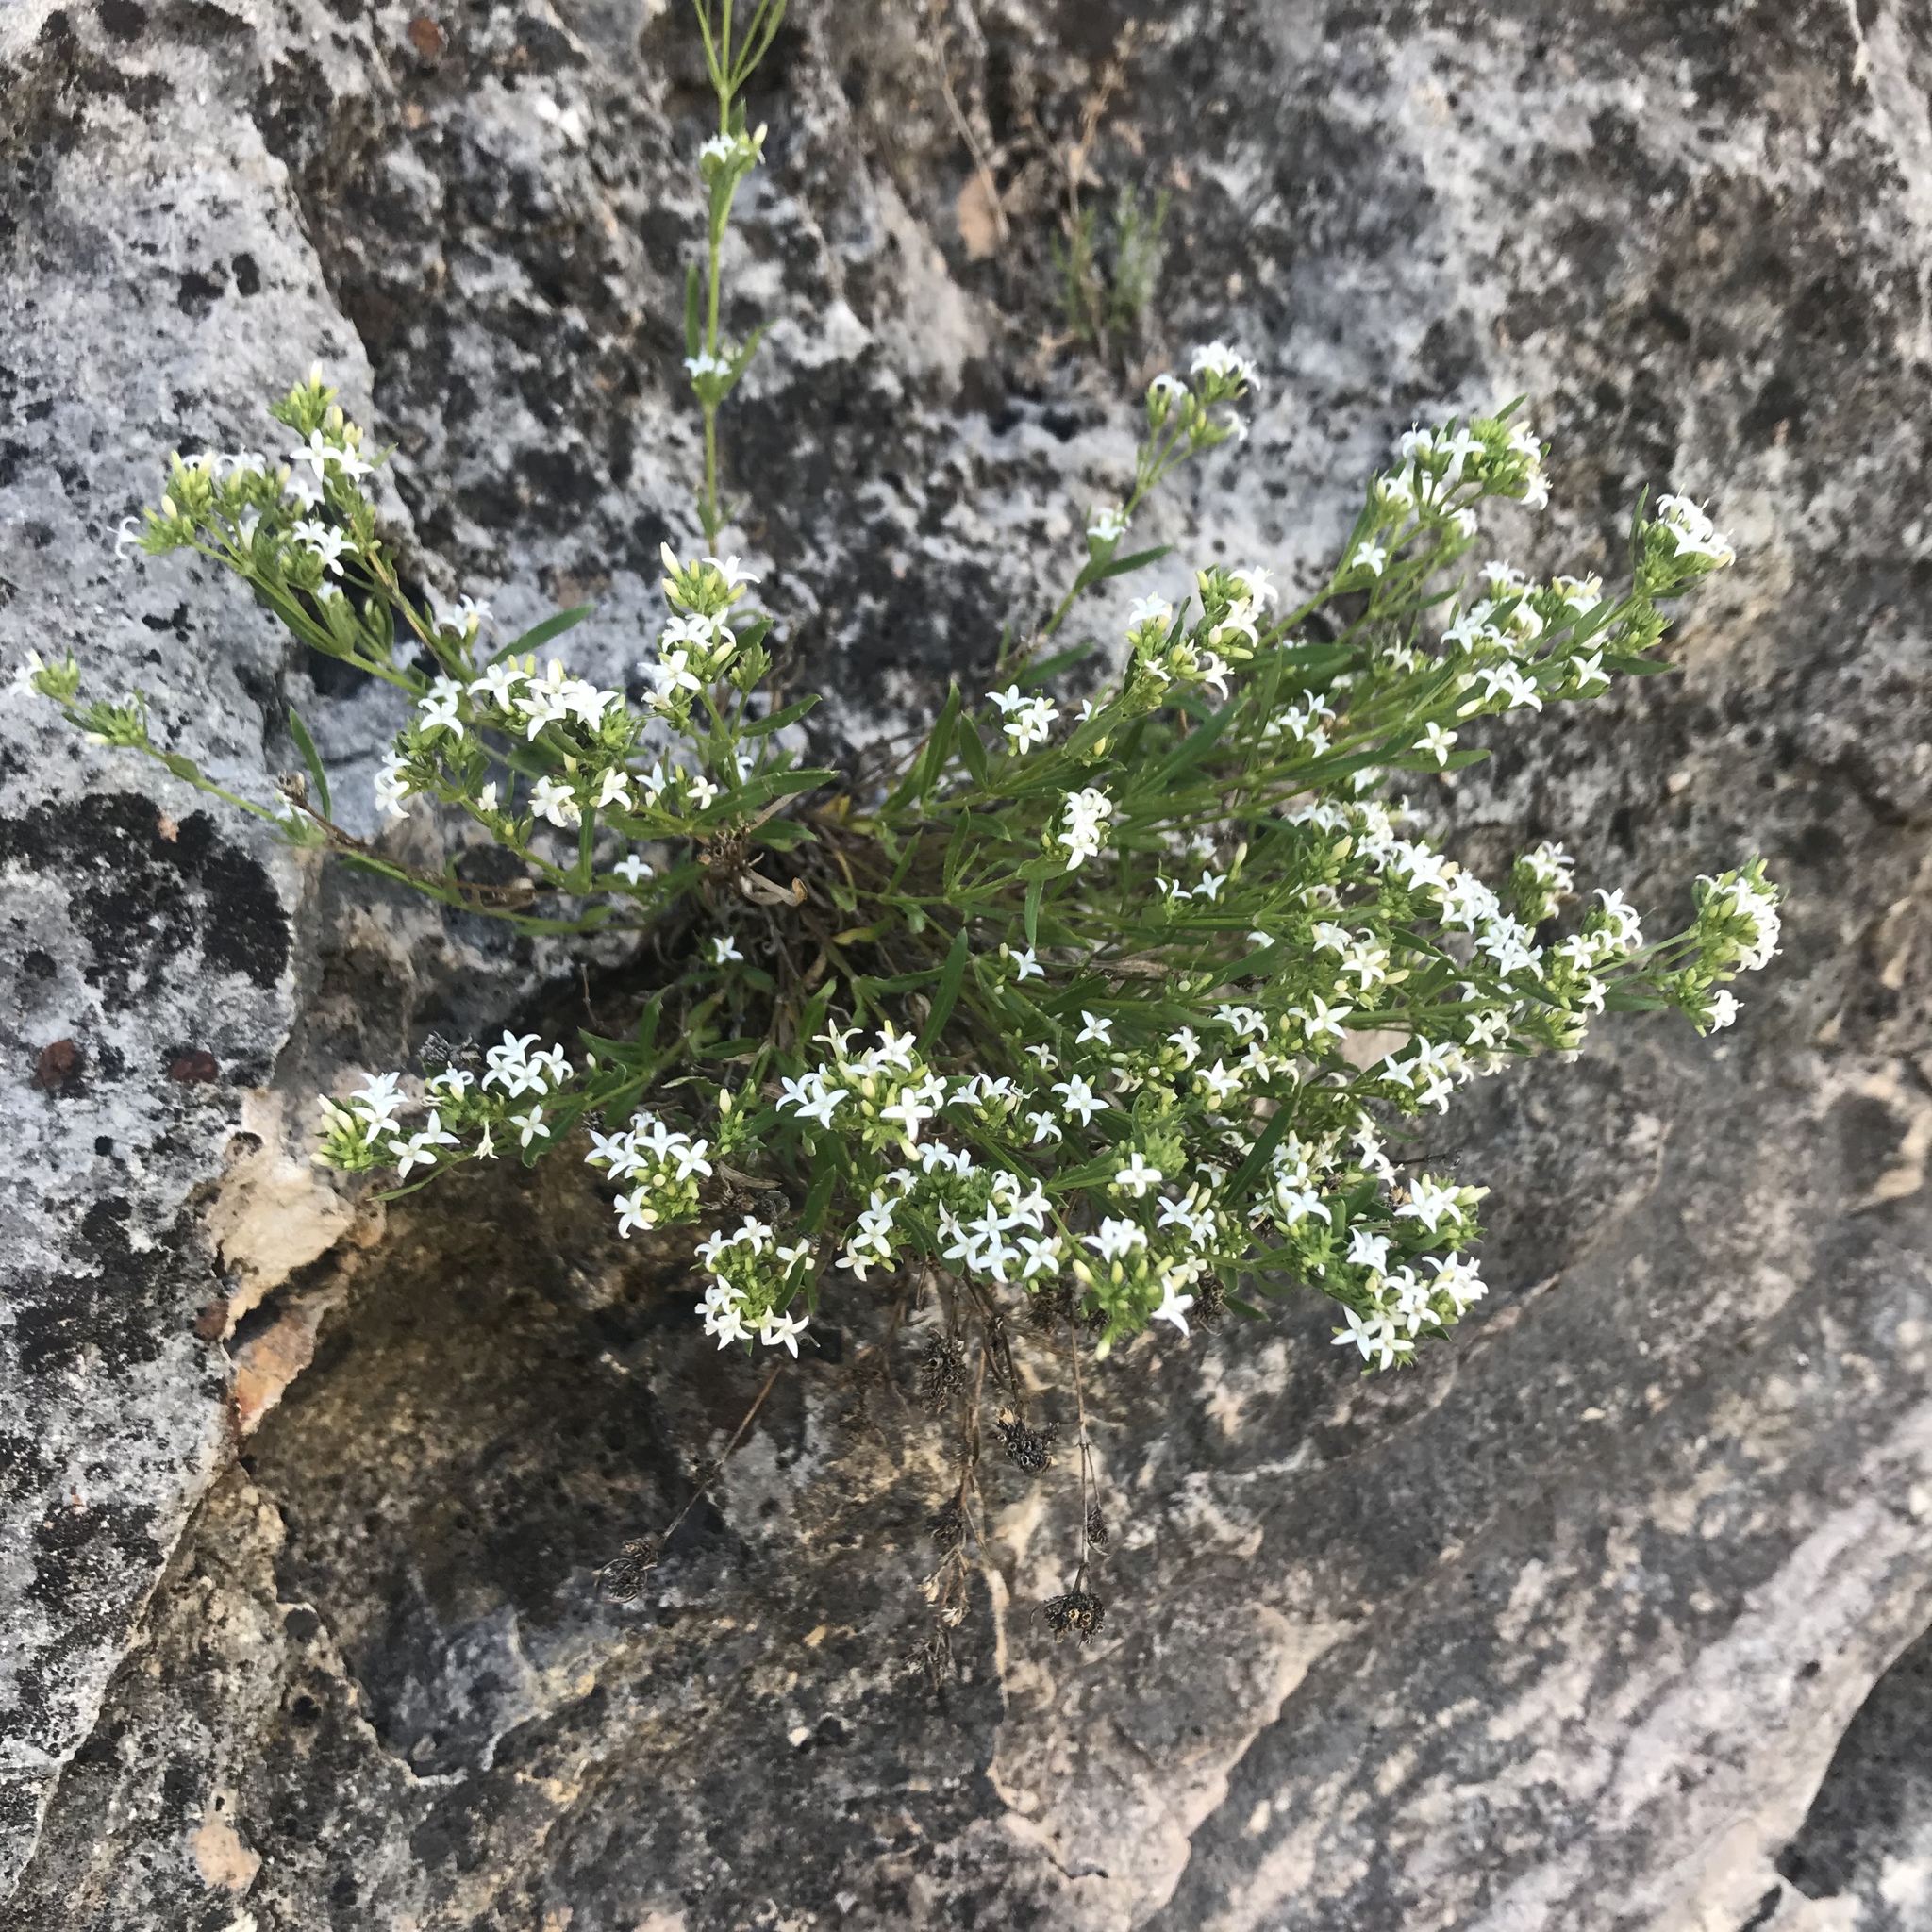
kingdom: Plantae
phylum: Tracheophyta
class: Magnoliopsida
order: Gentianales
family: Rubiaceae
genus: Stenaria
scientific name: Stenaria nigricans
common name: Diamondflowers
